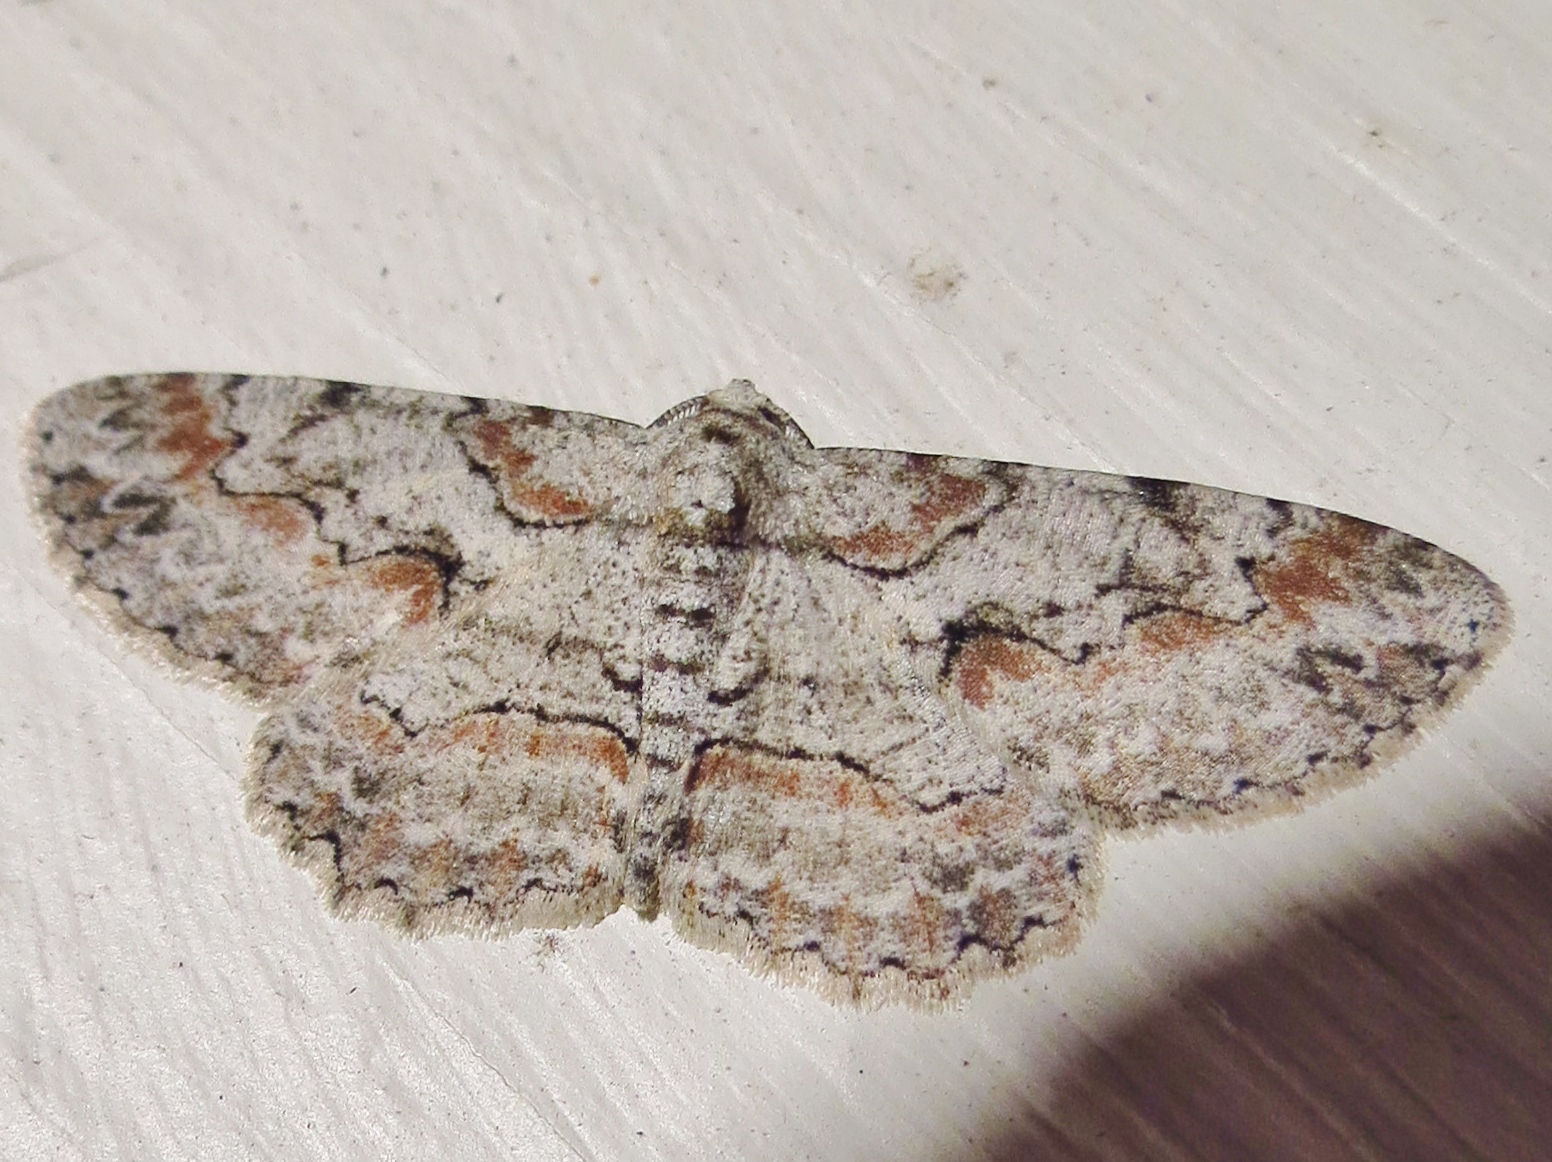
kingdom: Animalia
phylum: Arthropoda
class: Insecta
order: Lepidoptera
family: Geometridae
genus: Iridopsis
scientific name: Iridopsis defectaria
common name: Brown-shaded gray
